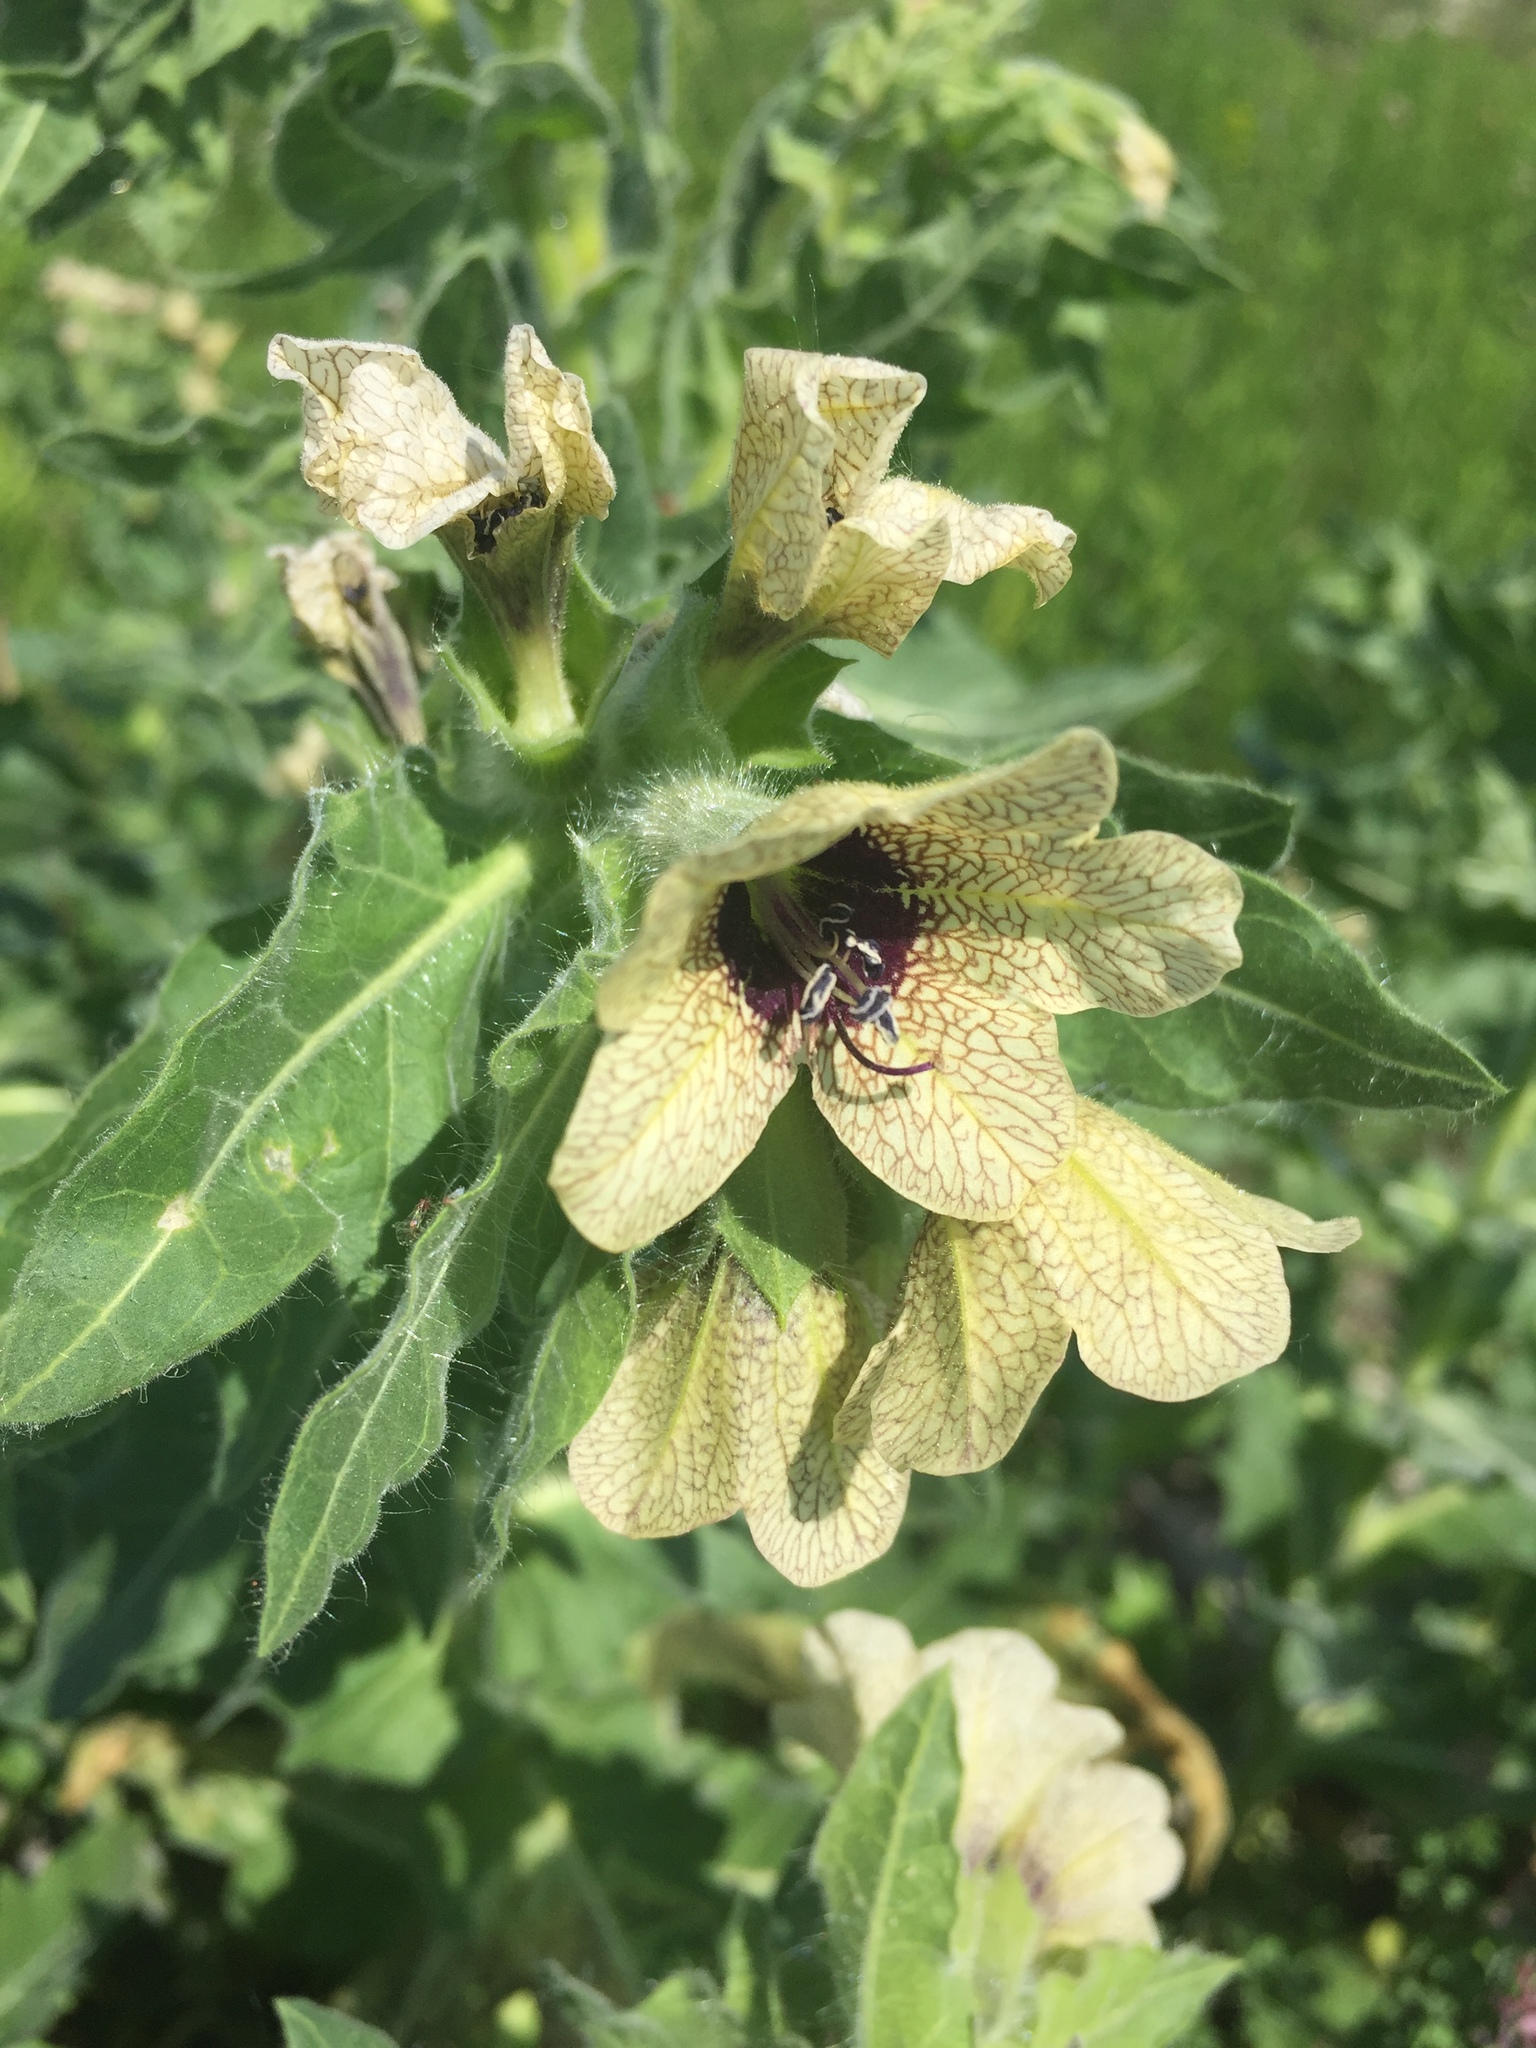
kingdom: Plantae
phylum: Tracheophyta
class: Magnoliopsida
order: Solanales
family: Solanaceae
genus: Hyoscyamus
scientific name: Hyoscyamus niger
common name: Henbane
